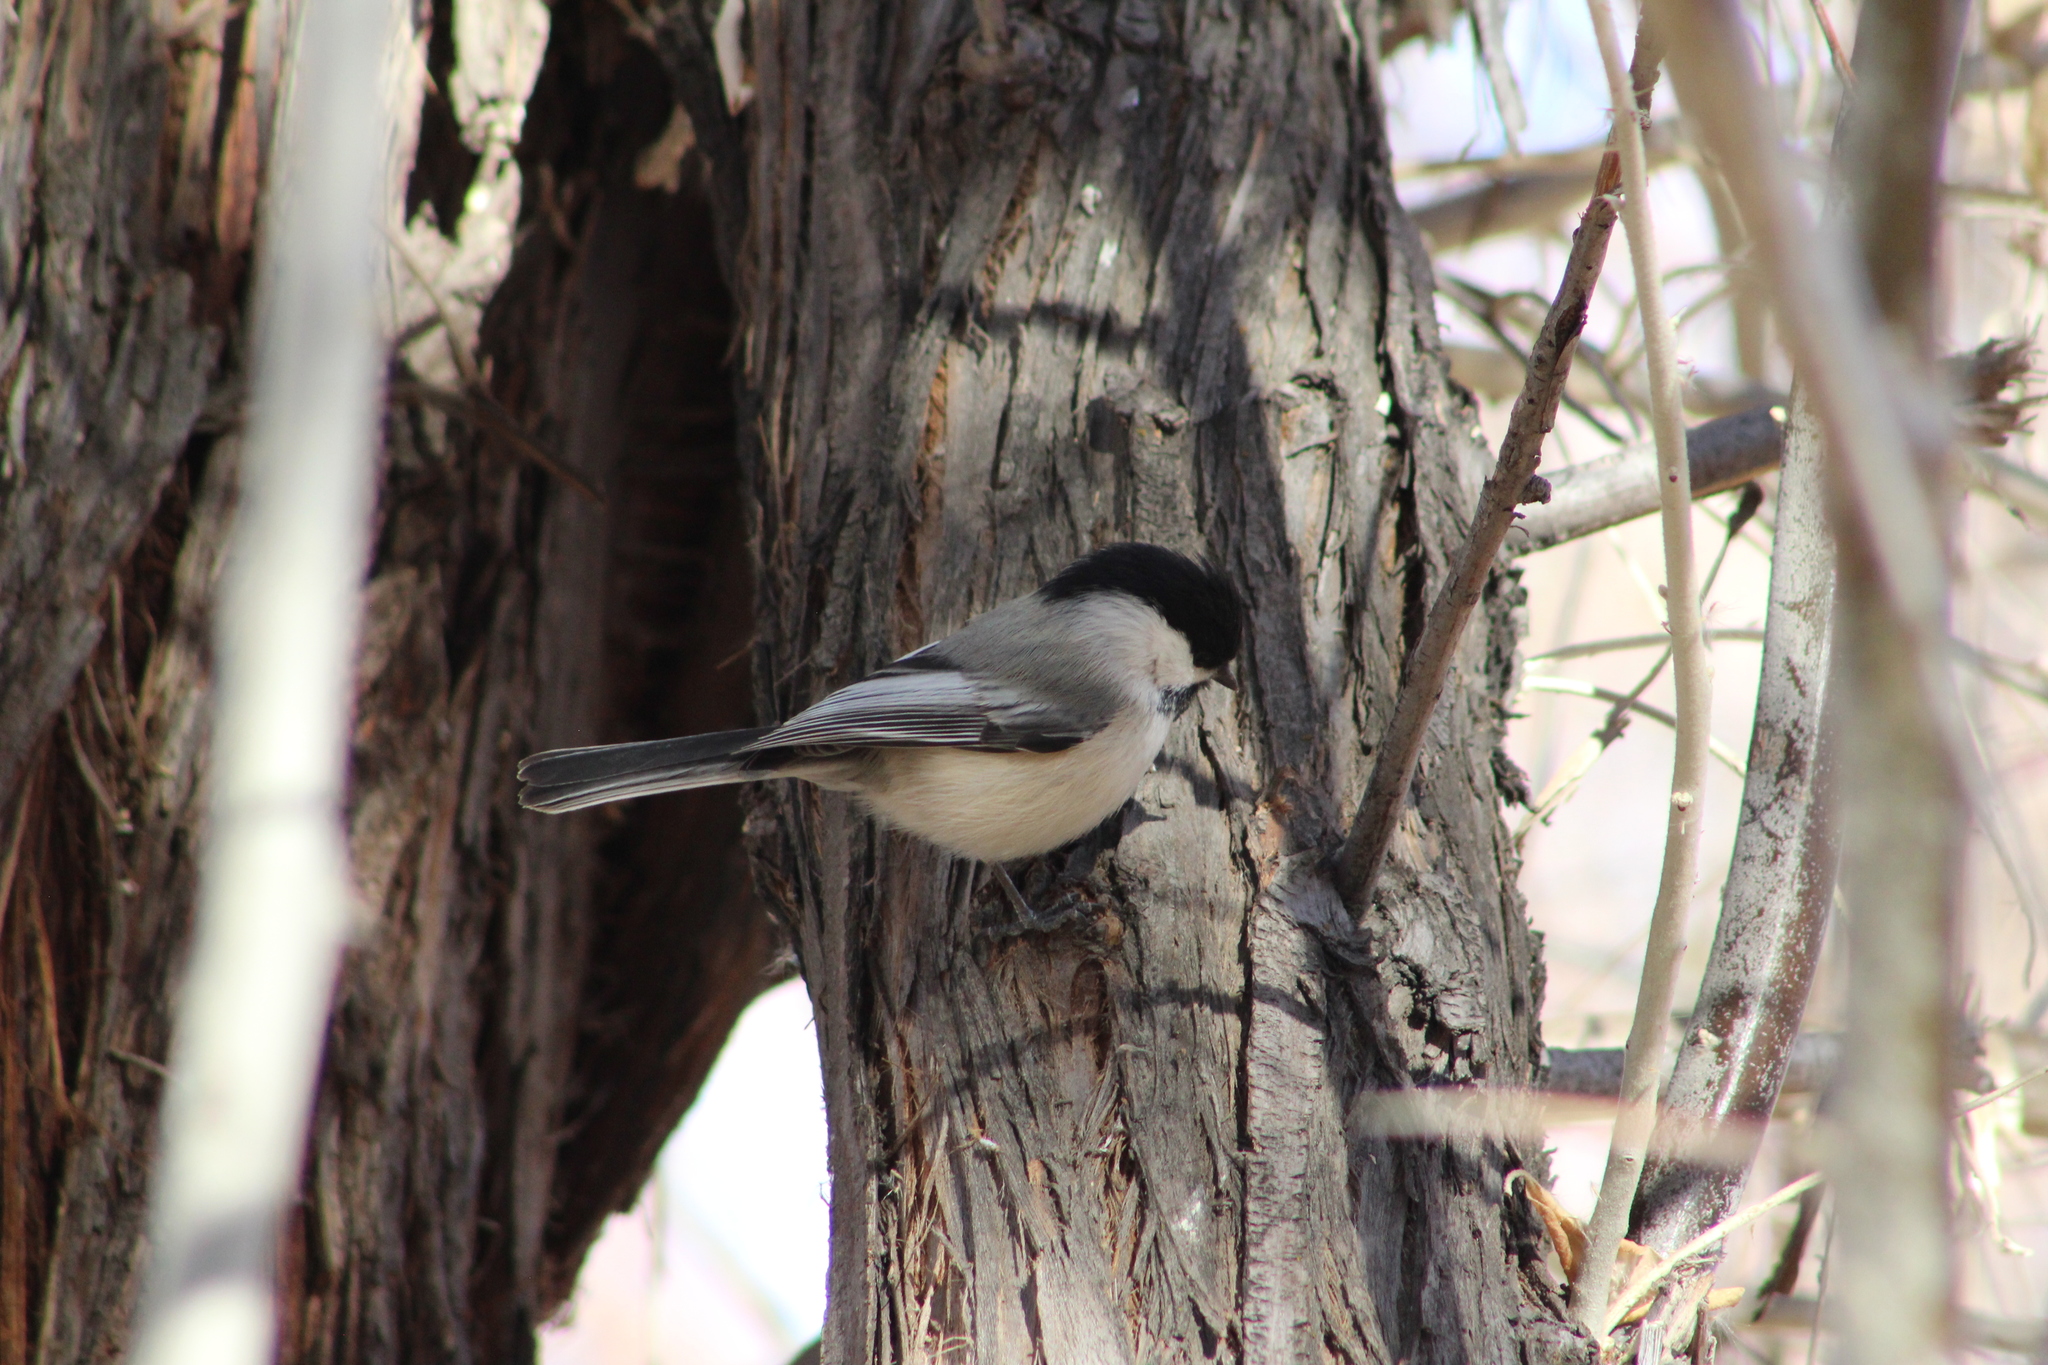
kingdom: Animalia
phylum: Chordata
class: Aves
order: Passeriformes
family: Paridae
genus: Poecile
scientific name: Poecile atricapillus
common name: Black-capped chickadee
